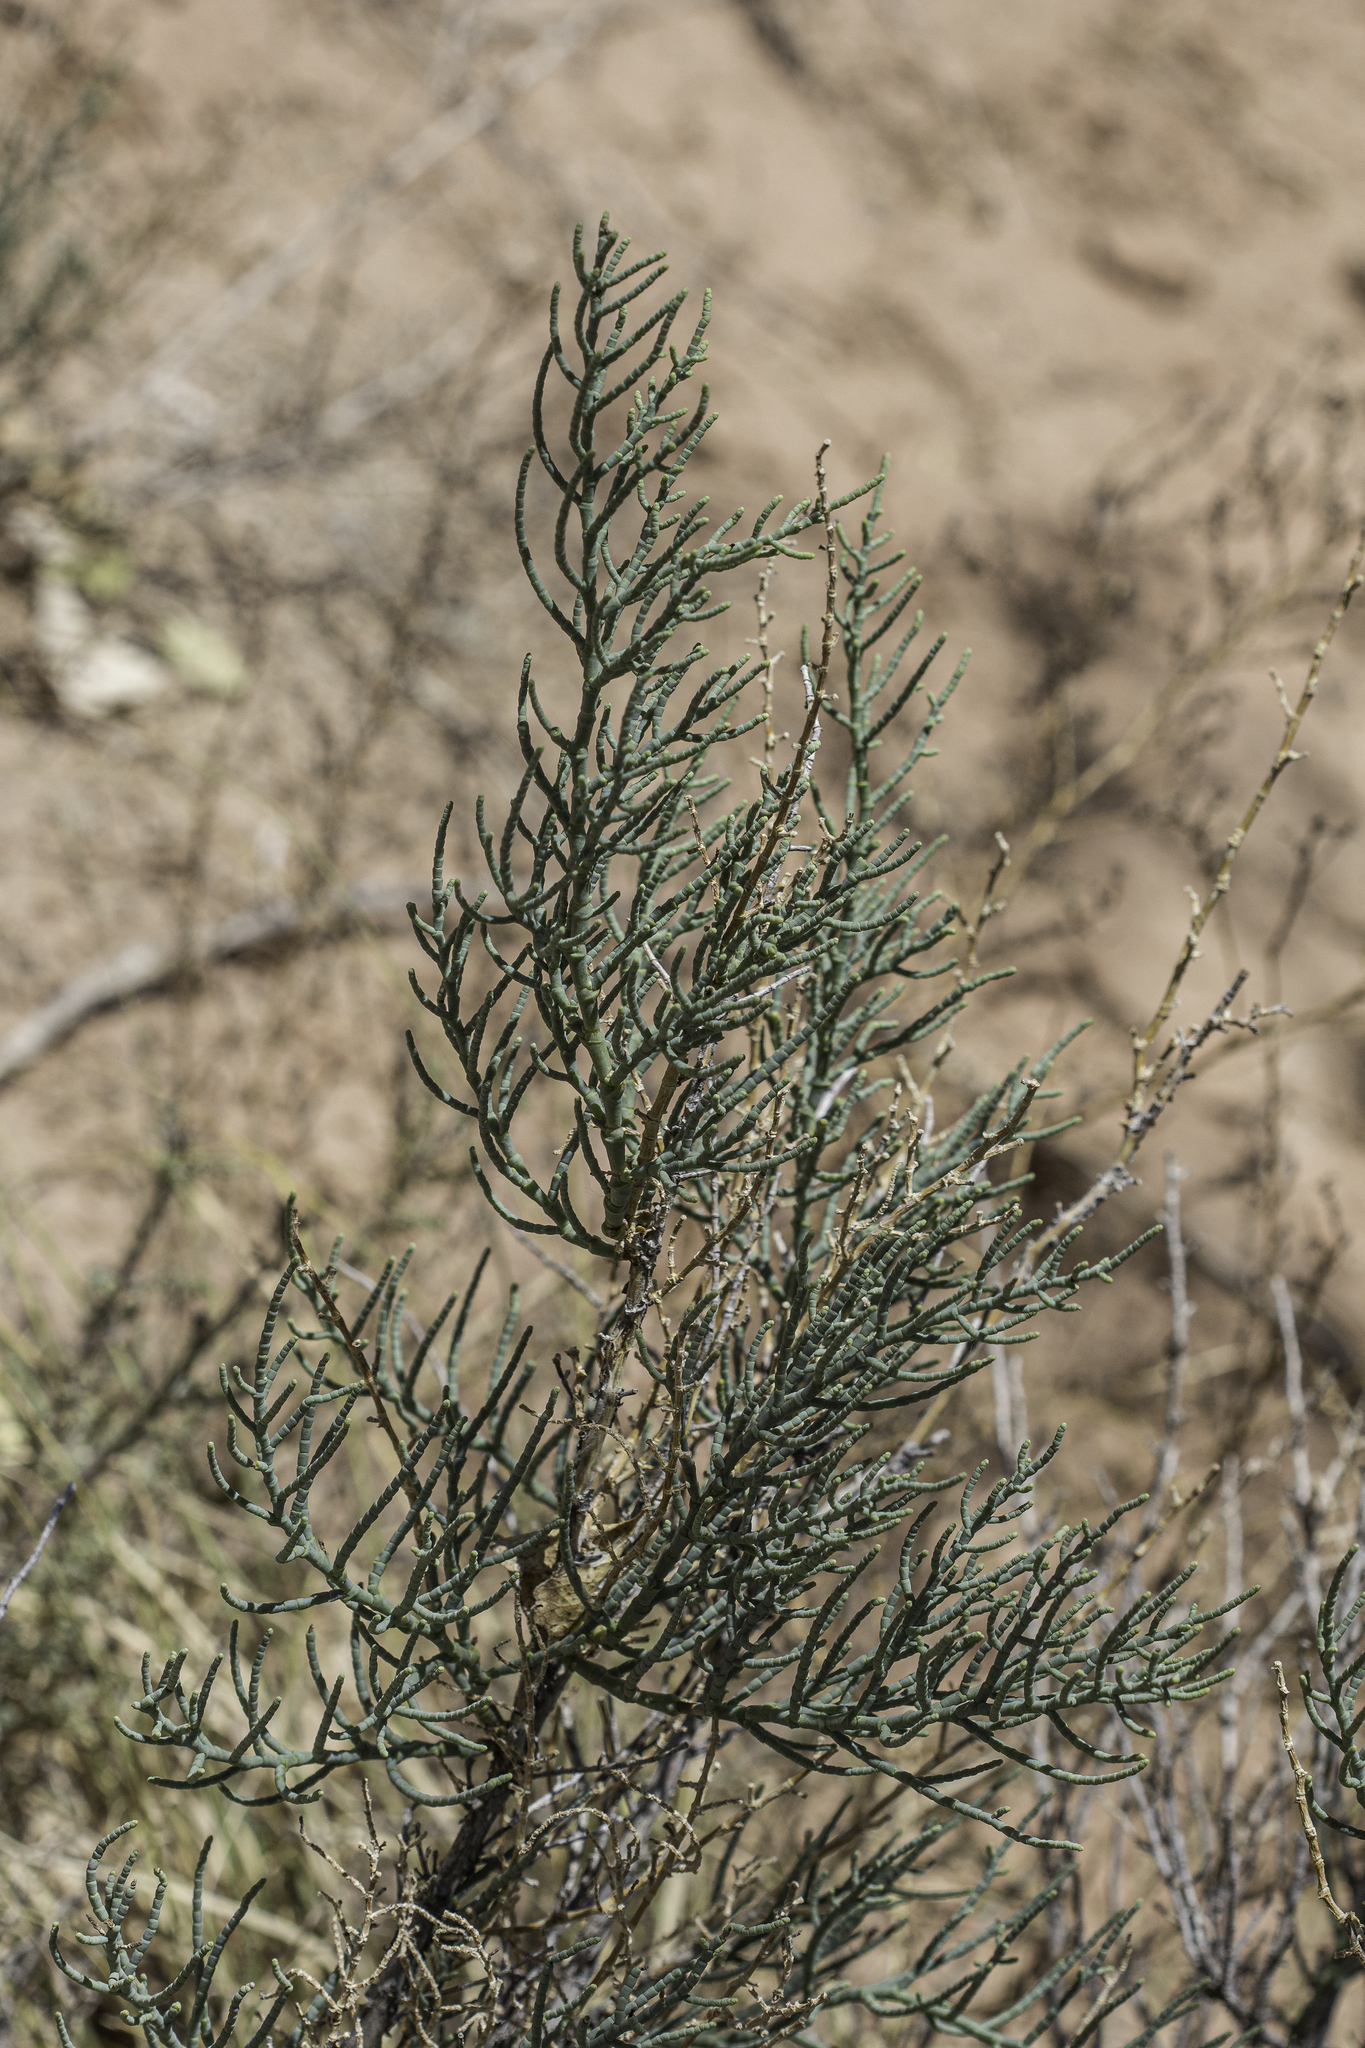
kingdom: Plantae
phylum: Tracheophyta
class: Magnoliopsida
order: Caryophyllales
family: Amaranthaceae
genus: Allenrolfea
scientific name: Allenrolfea occidentalis
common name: Iodine-bush
